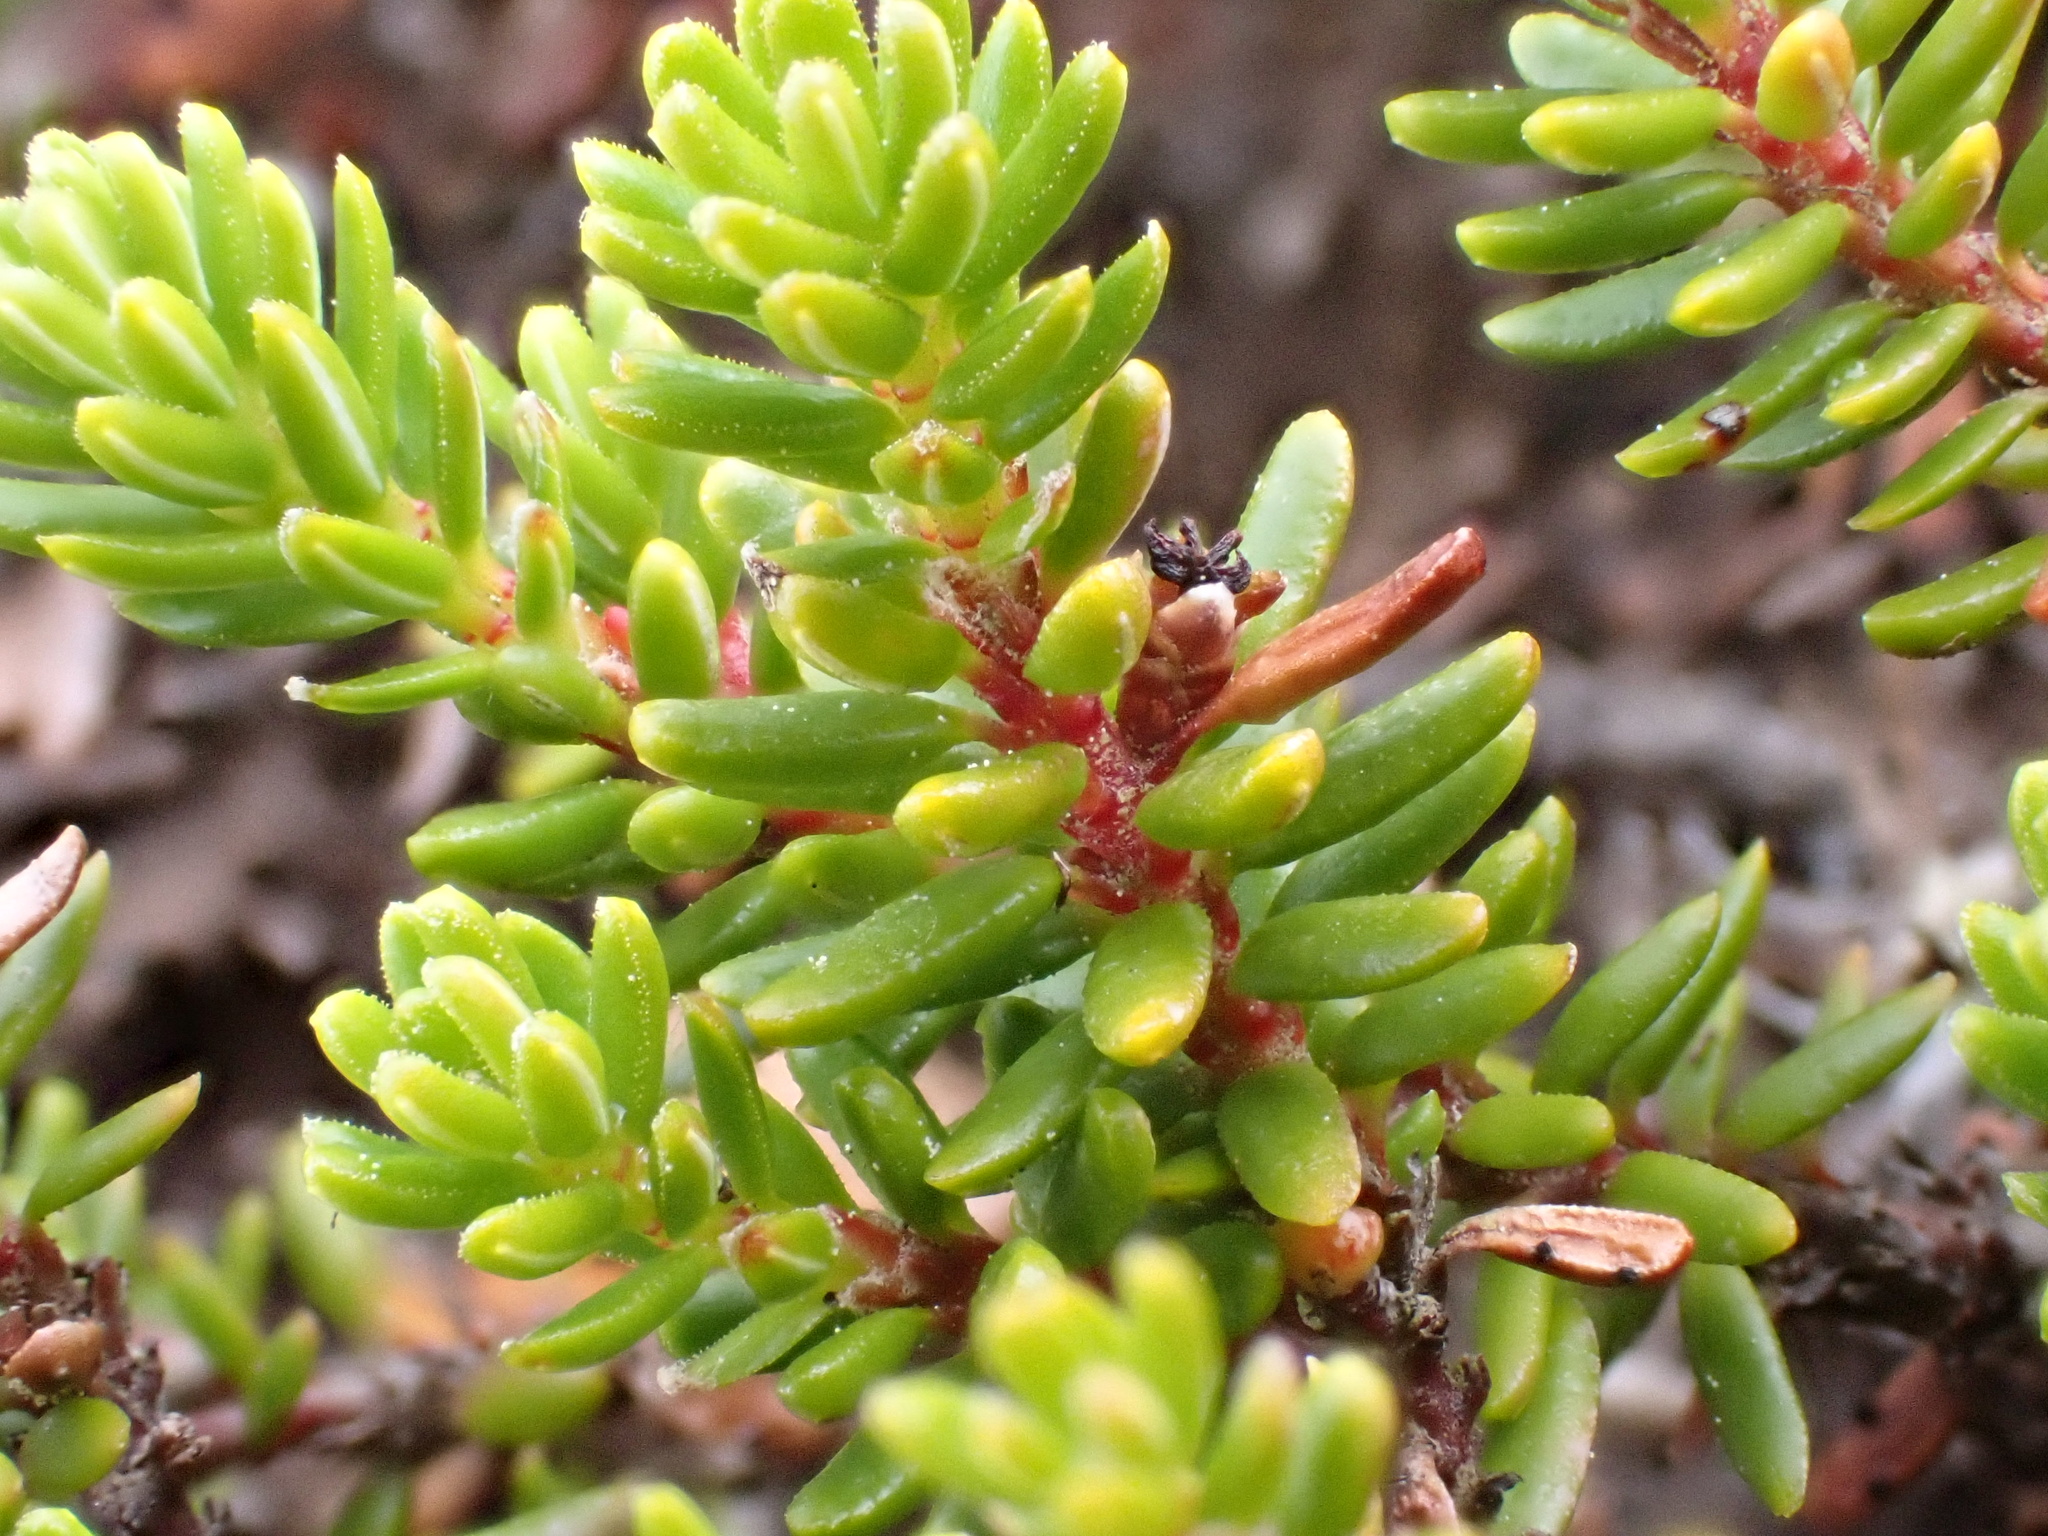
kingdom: Plantae
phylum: Tracheophyta
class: Magnoliopsida
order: Ericales
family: Ericaceae
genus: Empetrum
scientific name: Empetrum nigrum
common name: Black crowberry
